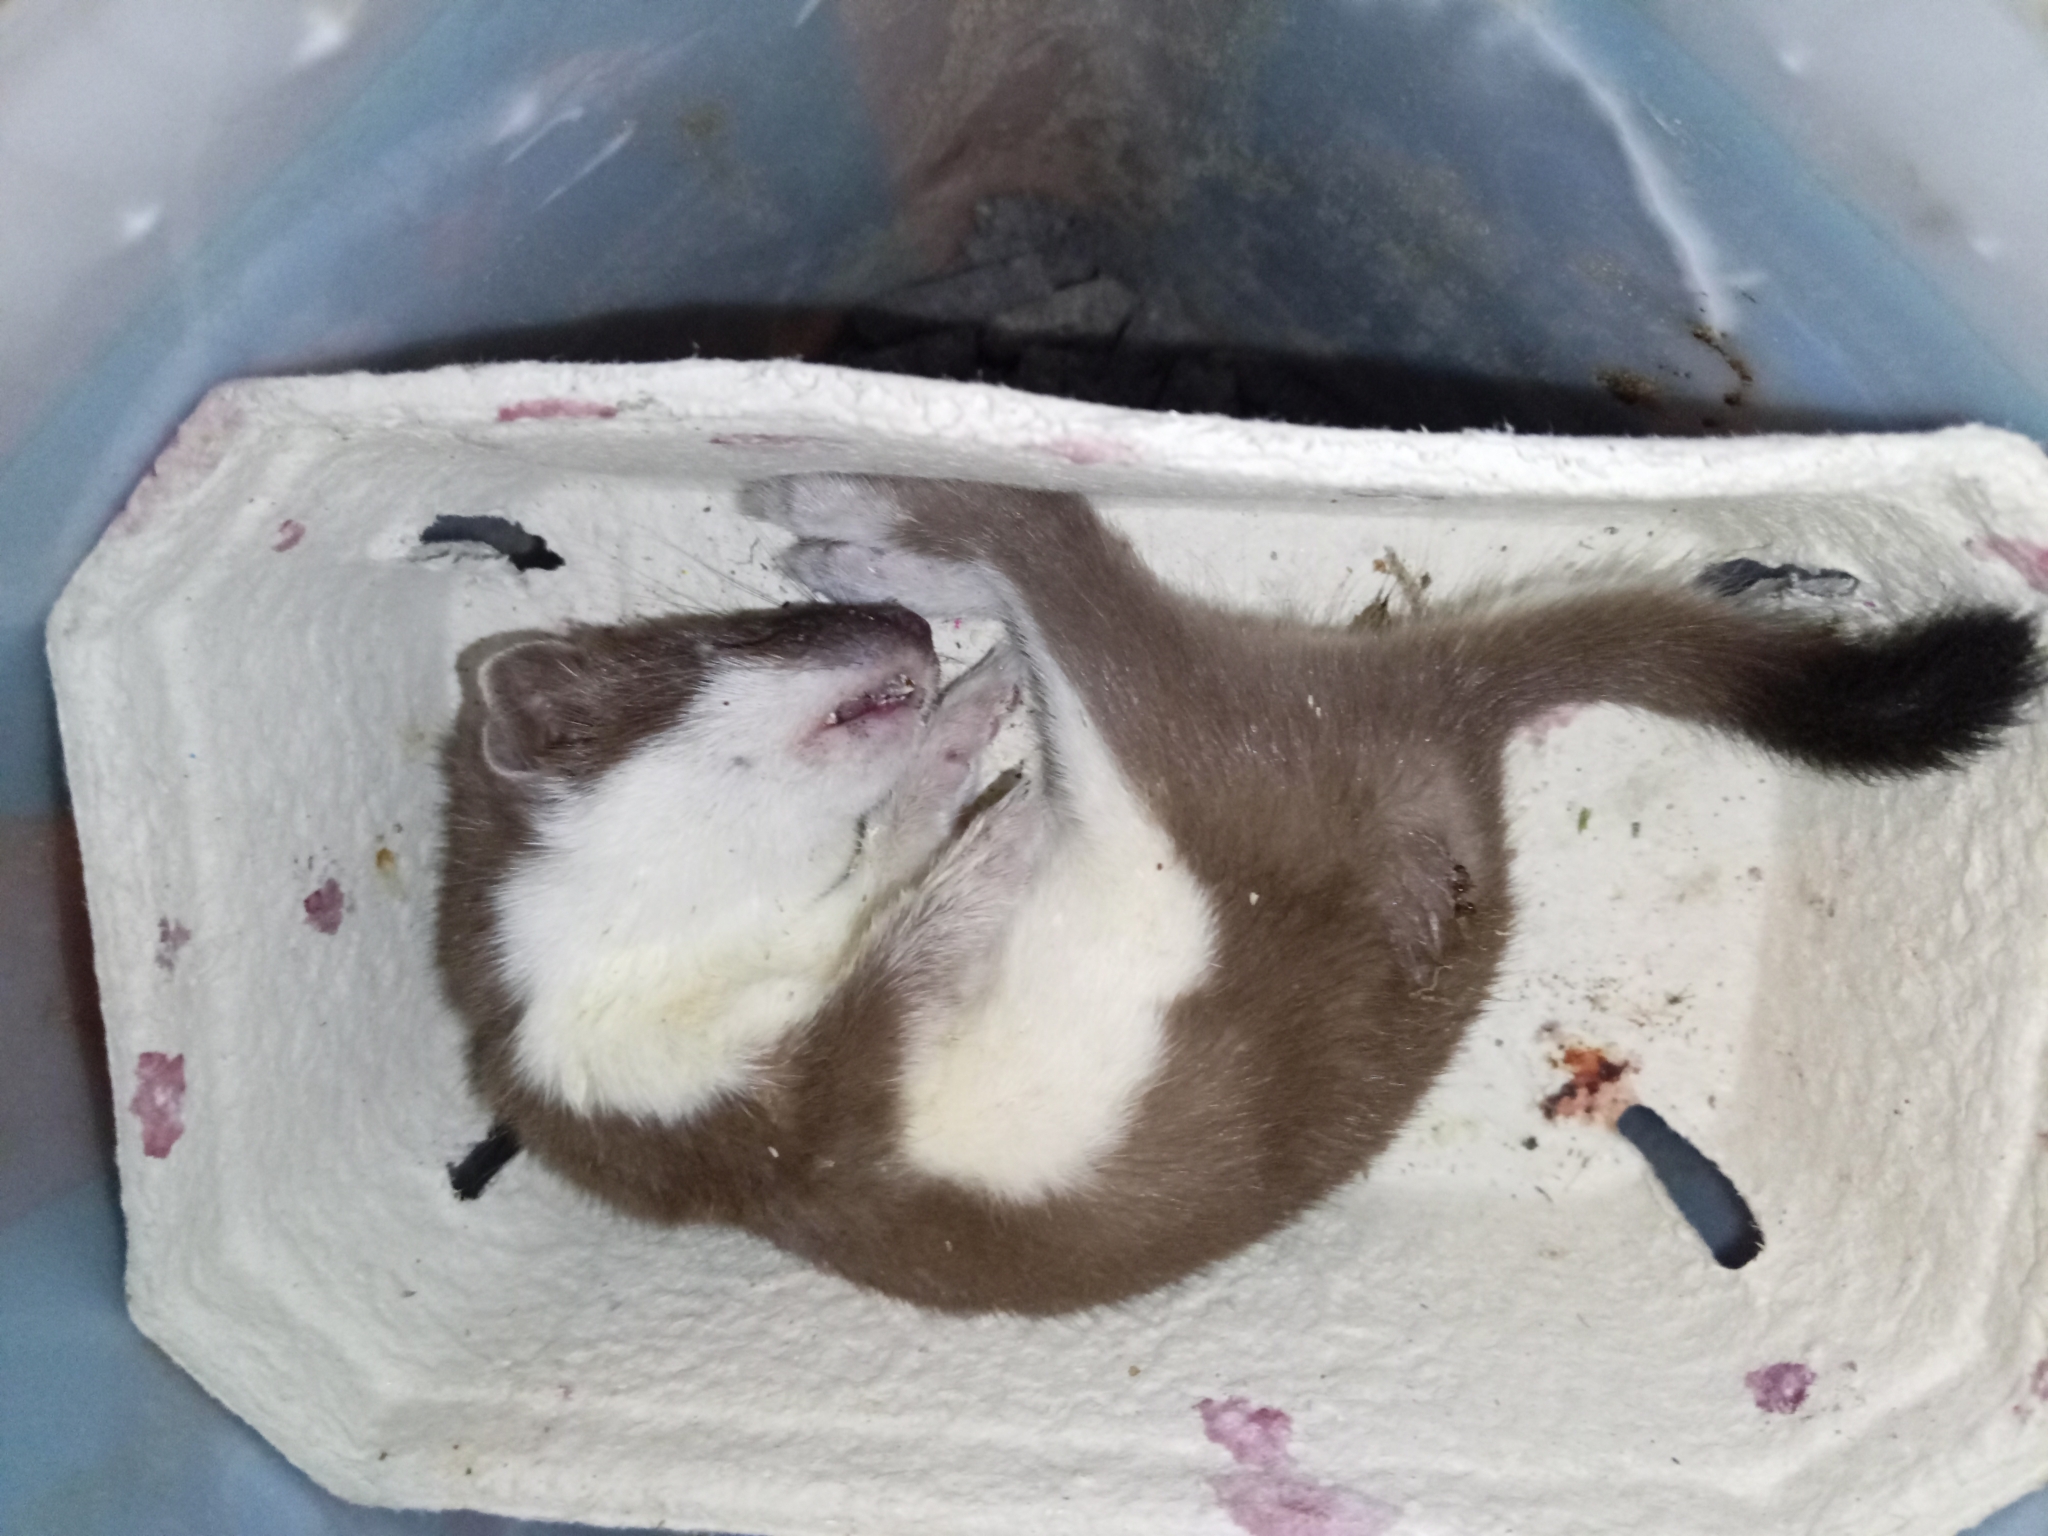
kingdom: Animalia
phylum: Chordata
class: Mammalia
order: Carnivora
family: Mustelidae
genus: Mustela
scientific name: Mustela erminea
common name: Stoat
